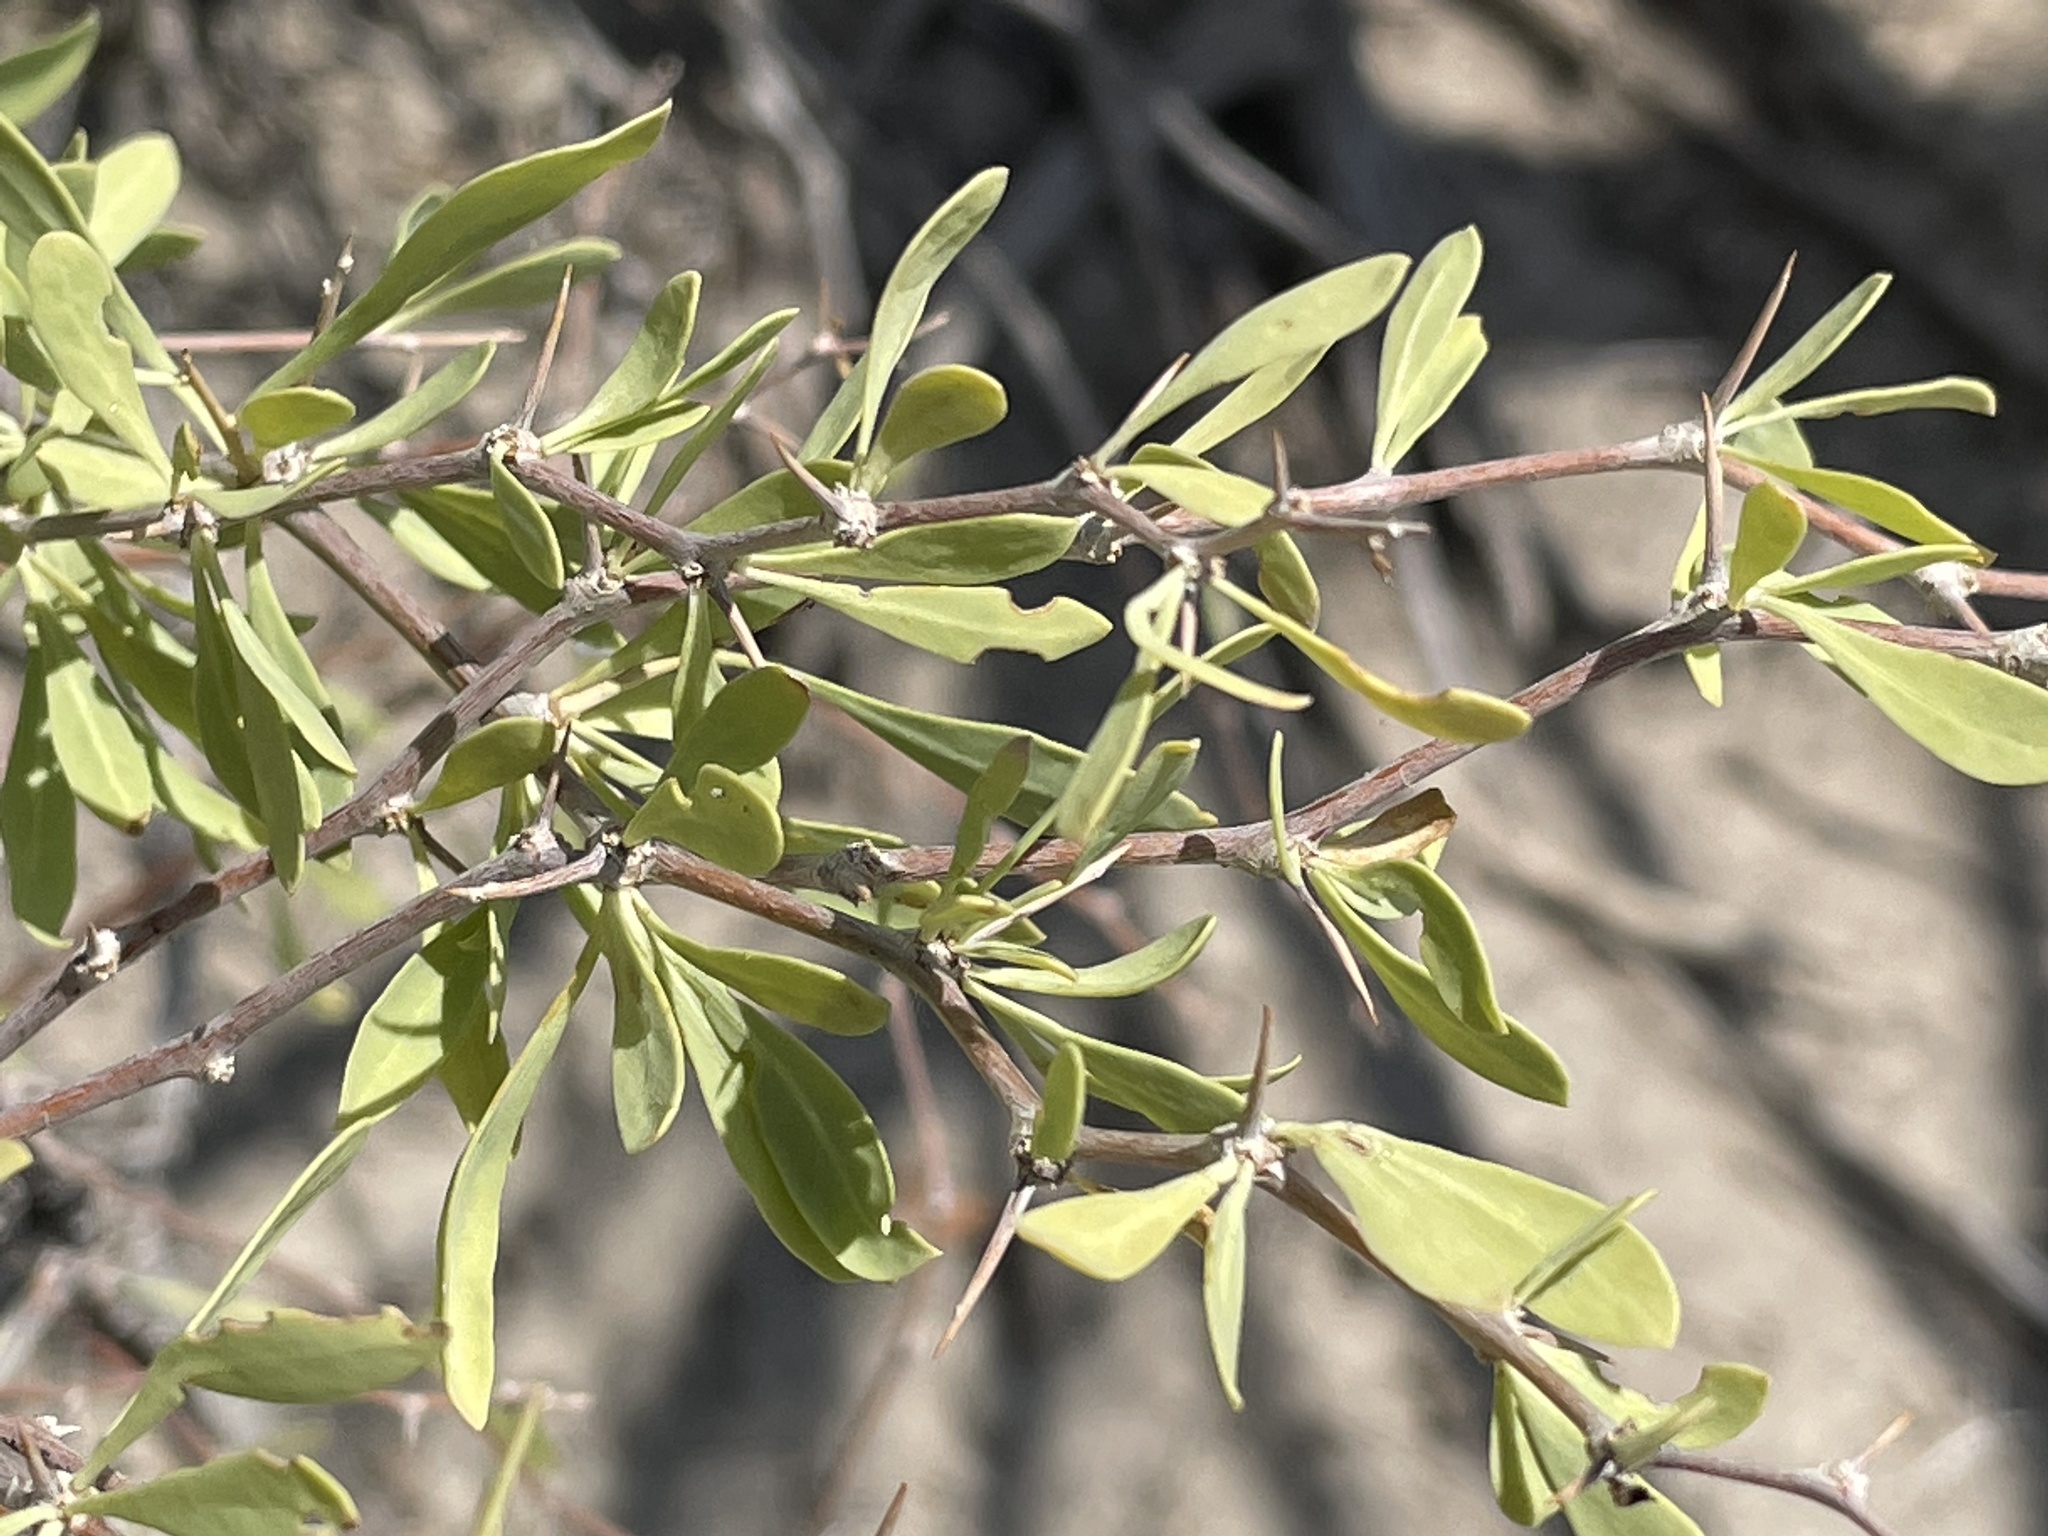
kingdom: Plantae
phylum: Tracheophyta
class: Magnoliopsida
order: Solanales
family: Solanaceae
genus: Lycium
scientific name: Lycium pallidum
